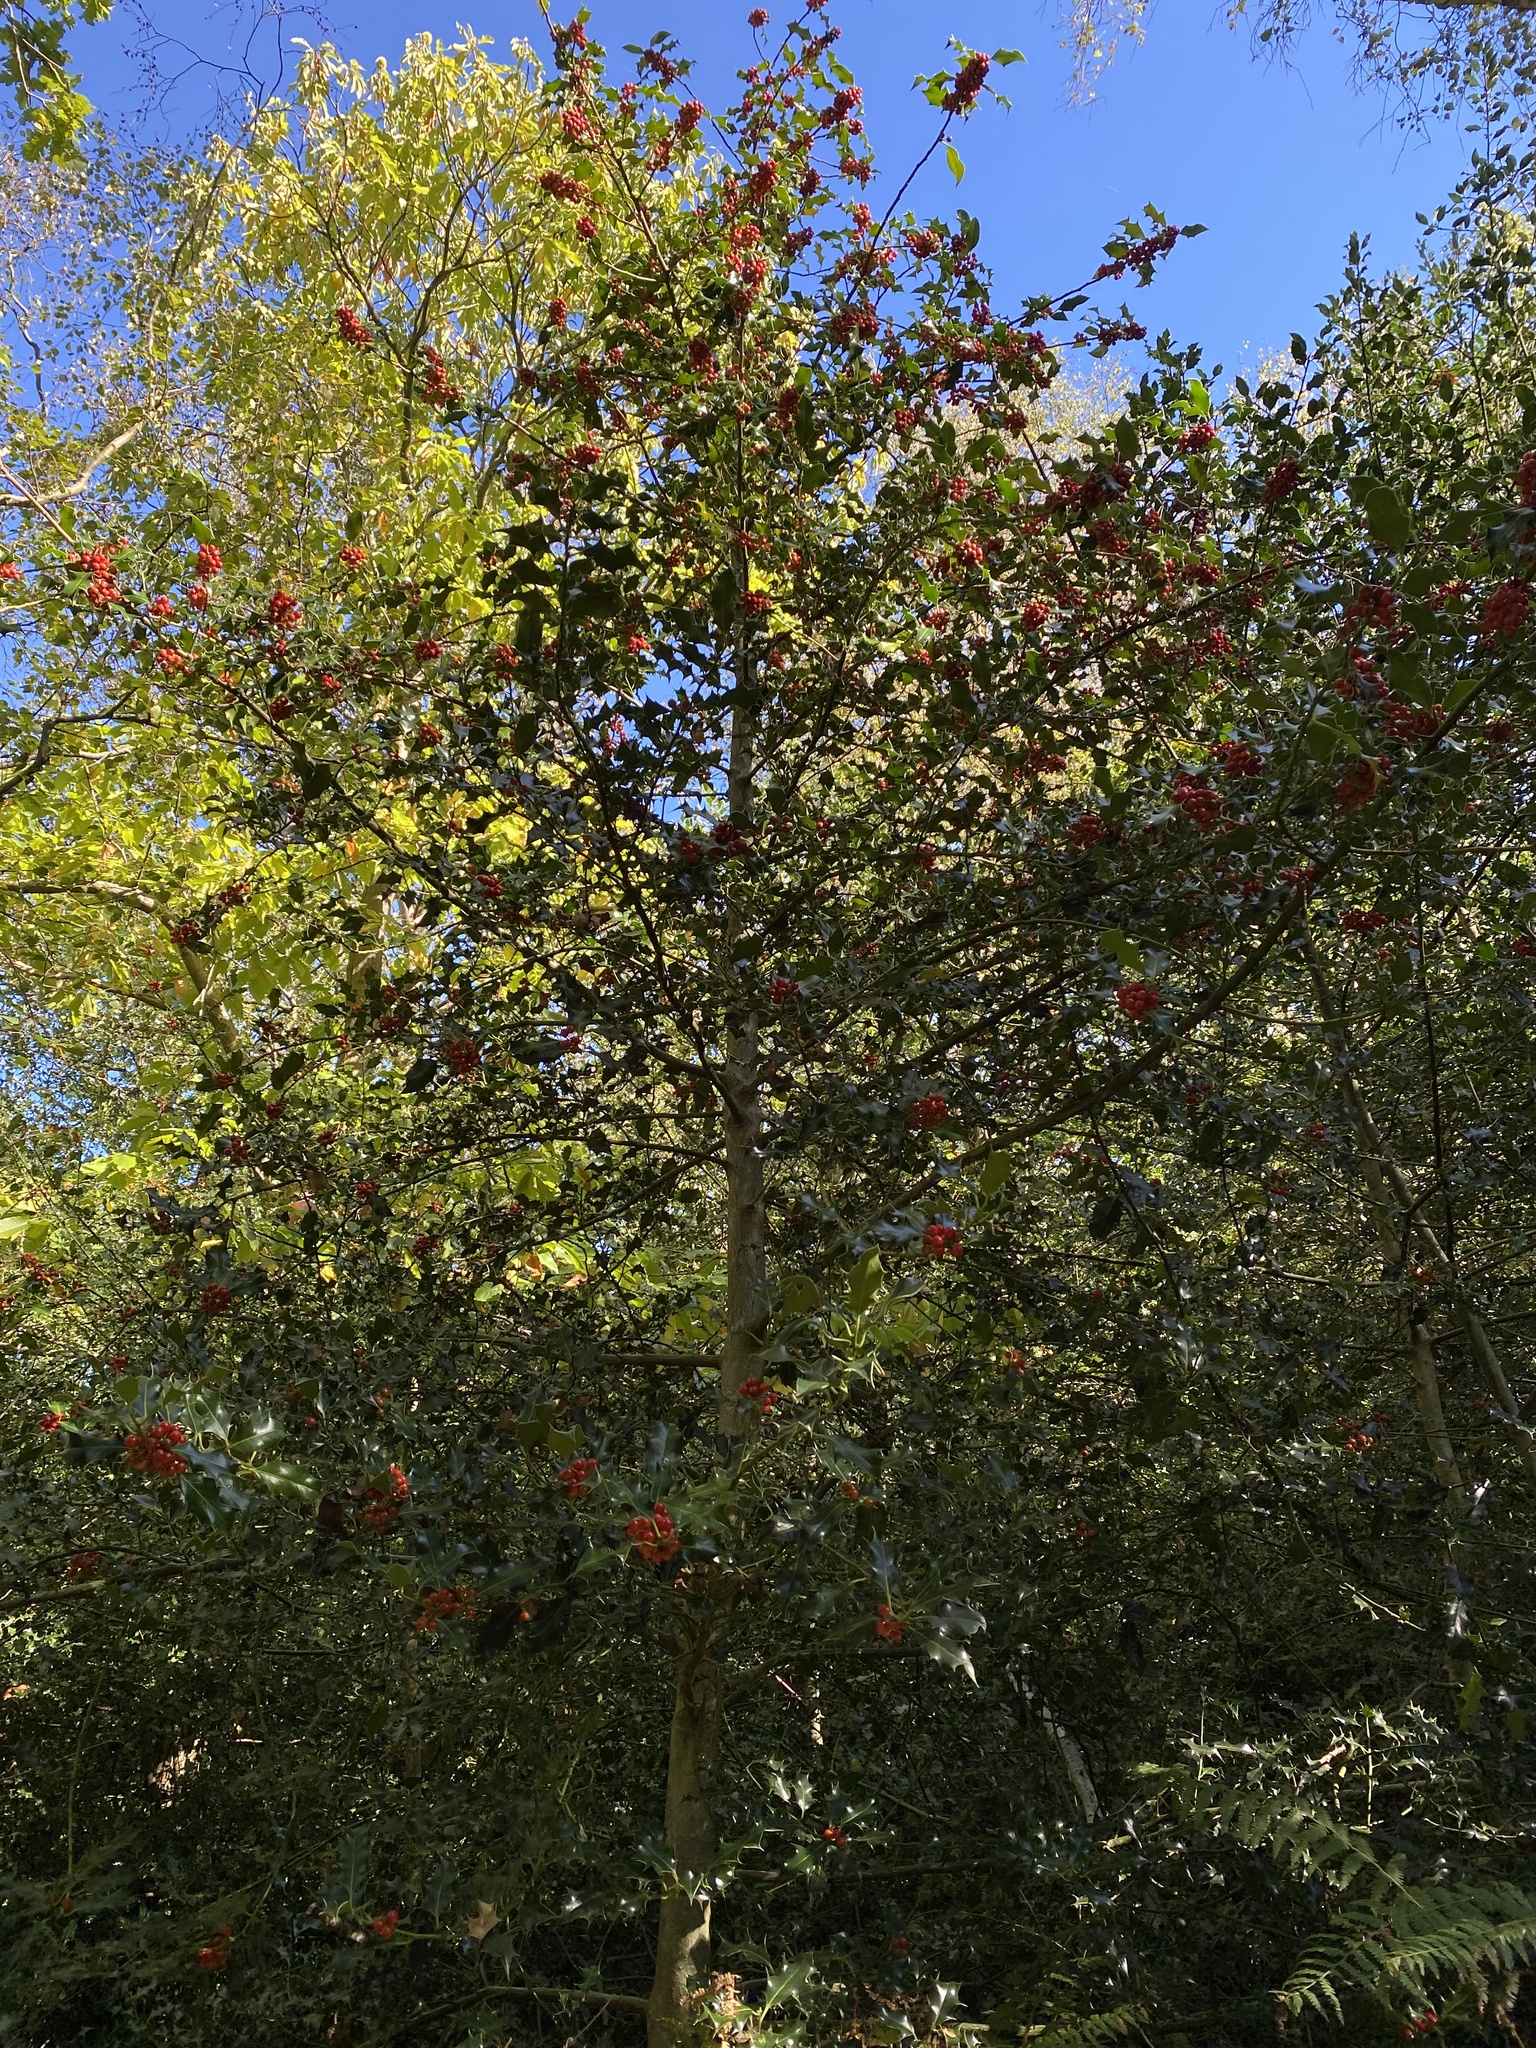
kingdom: Plantae
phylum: Tracheophyta
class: Magnoliopsida
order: Aquifoliales
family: Aquifoliaceae
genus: Ilex
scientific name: Ilex aquifolium
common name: English holly
